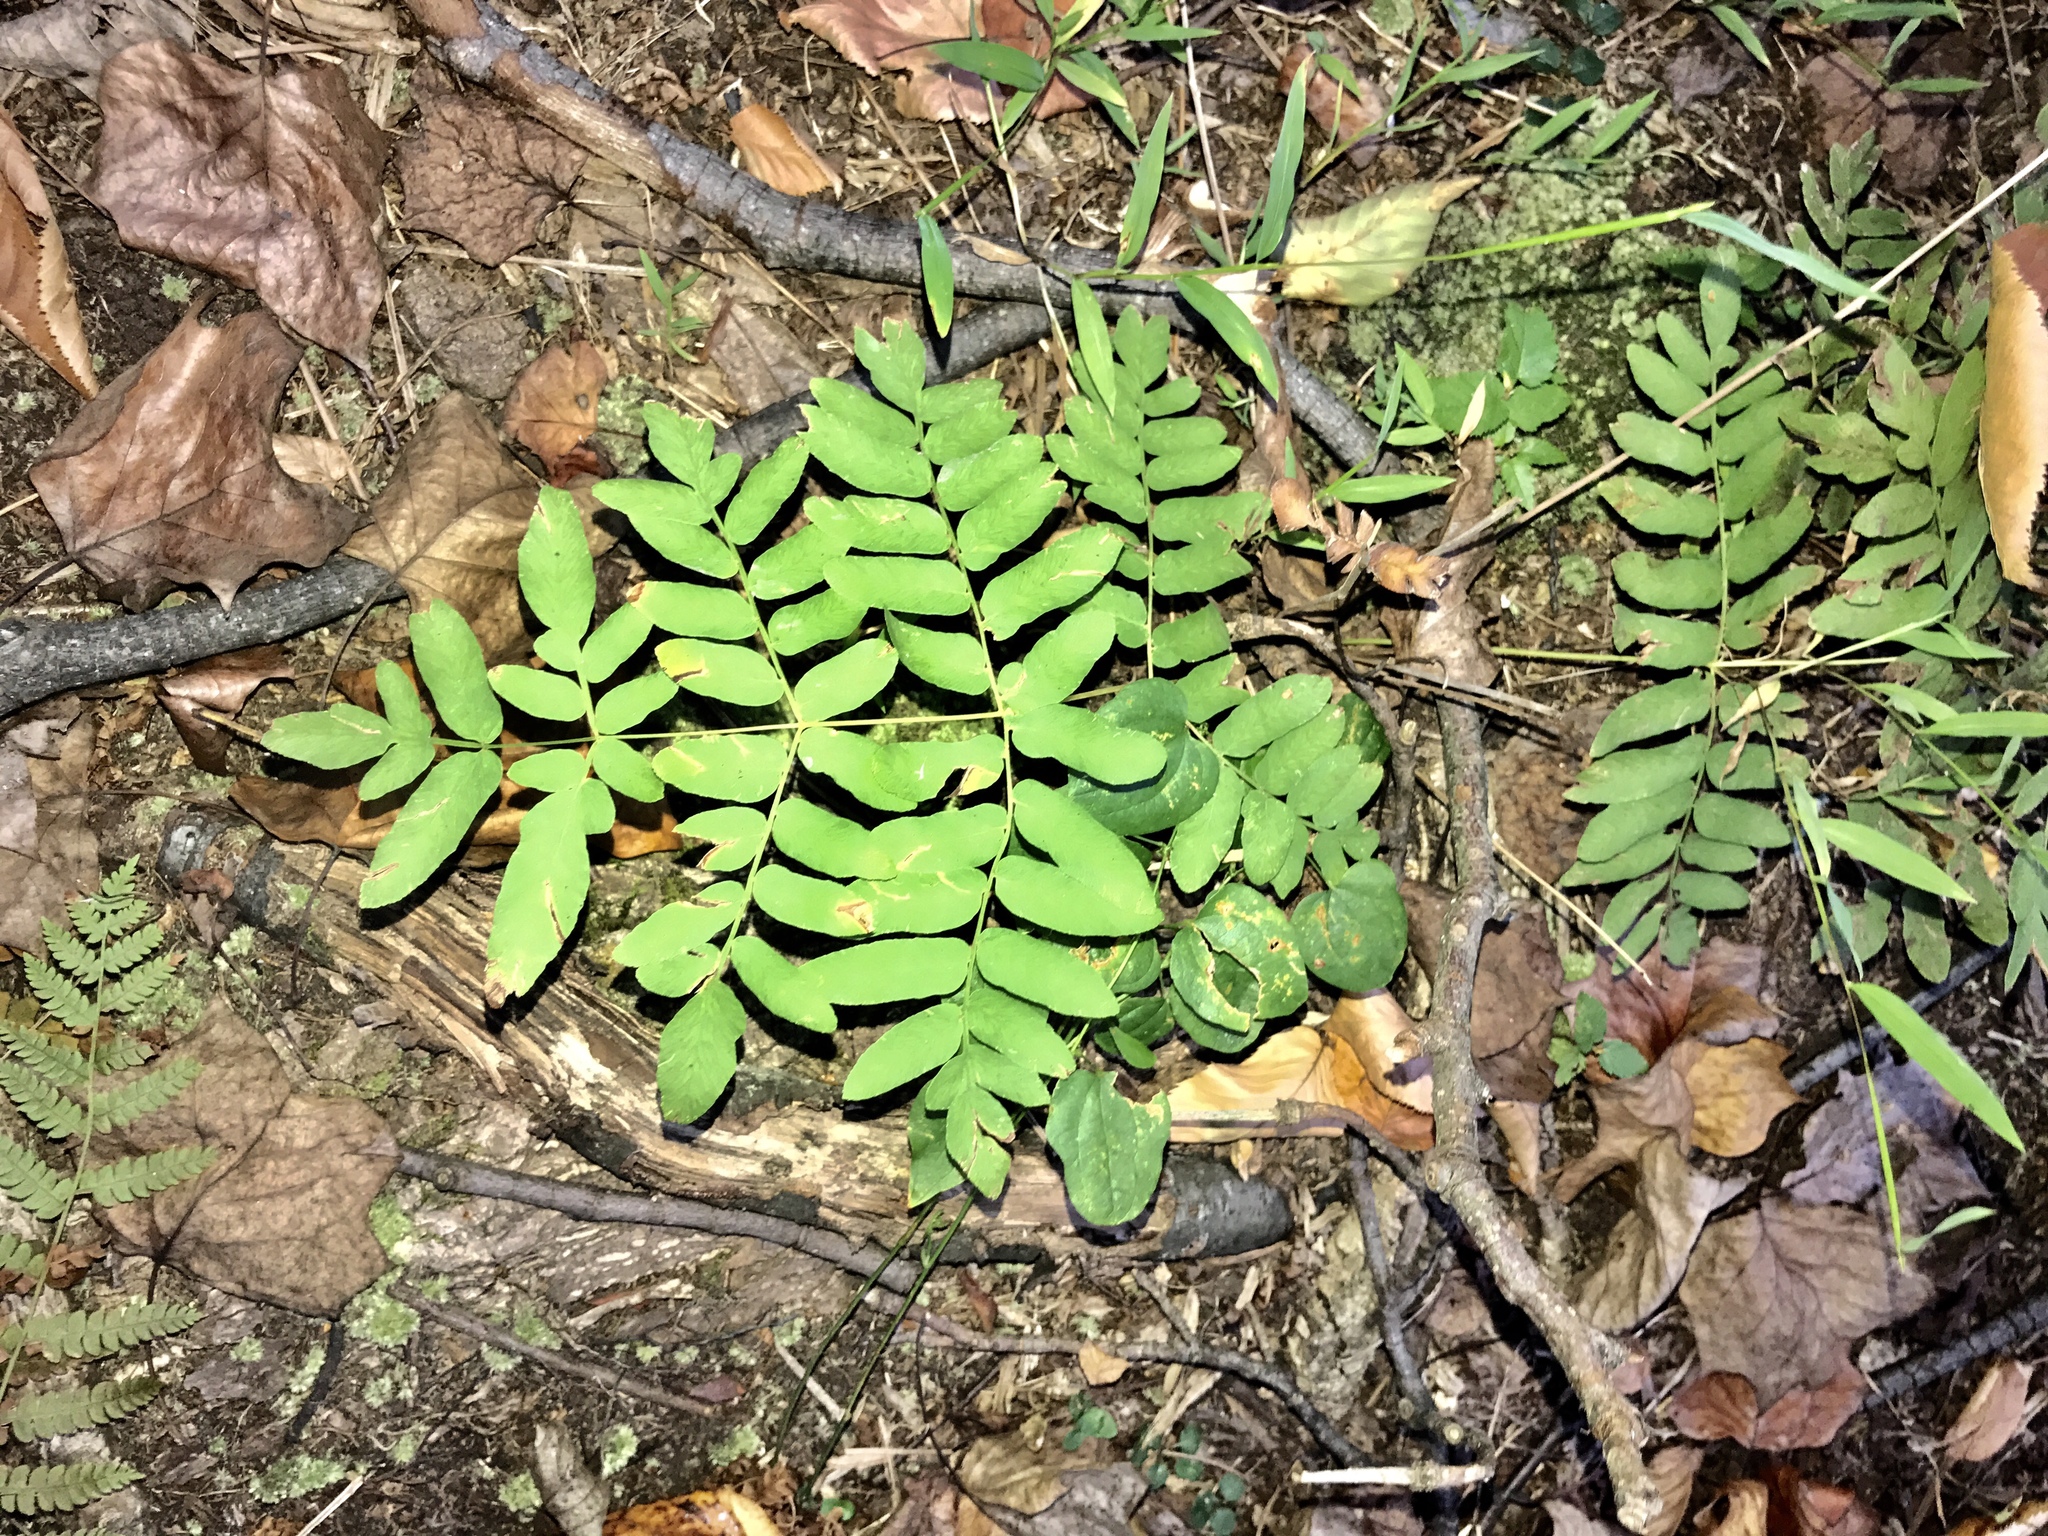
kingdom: Plantae
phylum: Tracheophyta
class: Polypodiopsida
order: Osmundales
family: Osmundaceae
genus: Osmunda
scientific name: Osmunda spectabilis
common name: American royal fern
